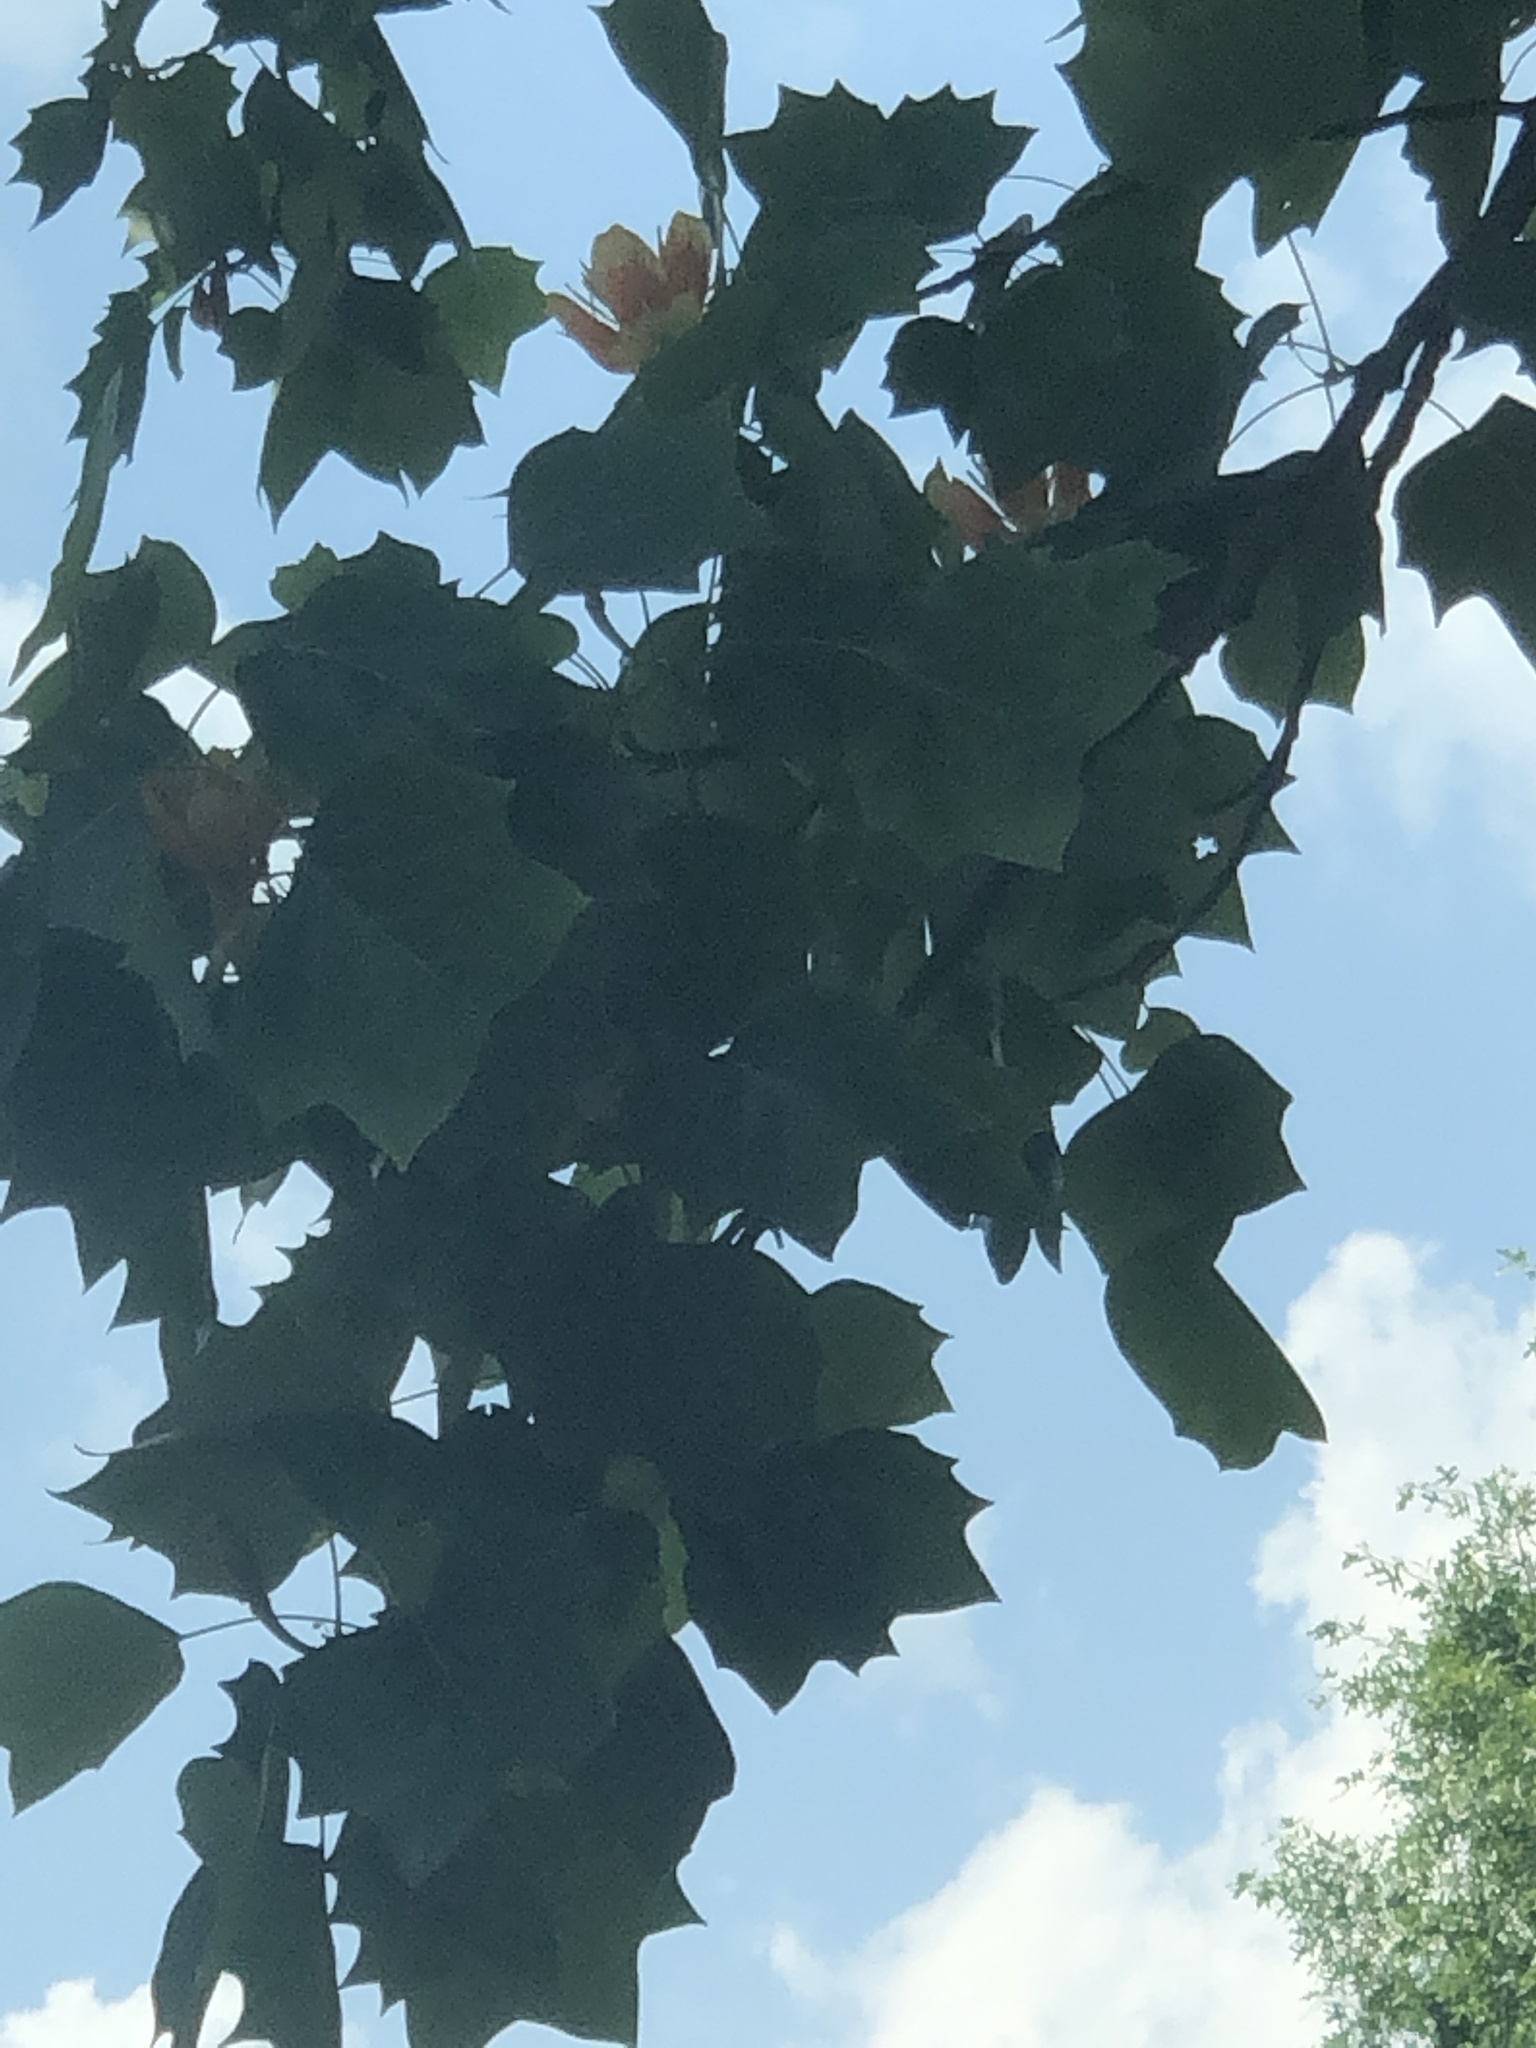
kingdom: Plantae
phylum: Tracheophyta
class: Magnoliopsida
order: Magnoliales
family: Magnoliaceae
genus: Liriodendron
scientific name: Liriodendron tulipifera
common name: Tulip tree
